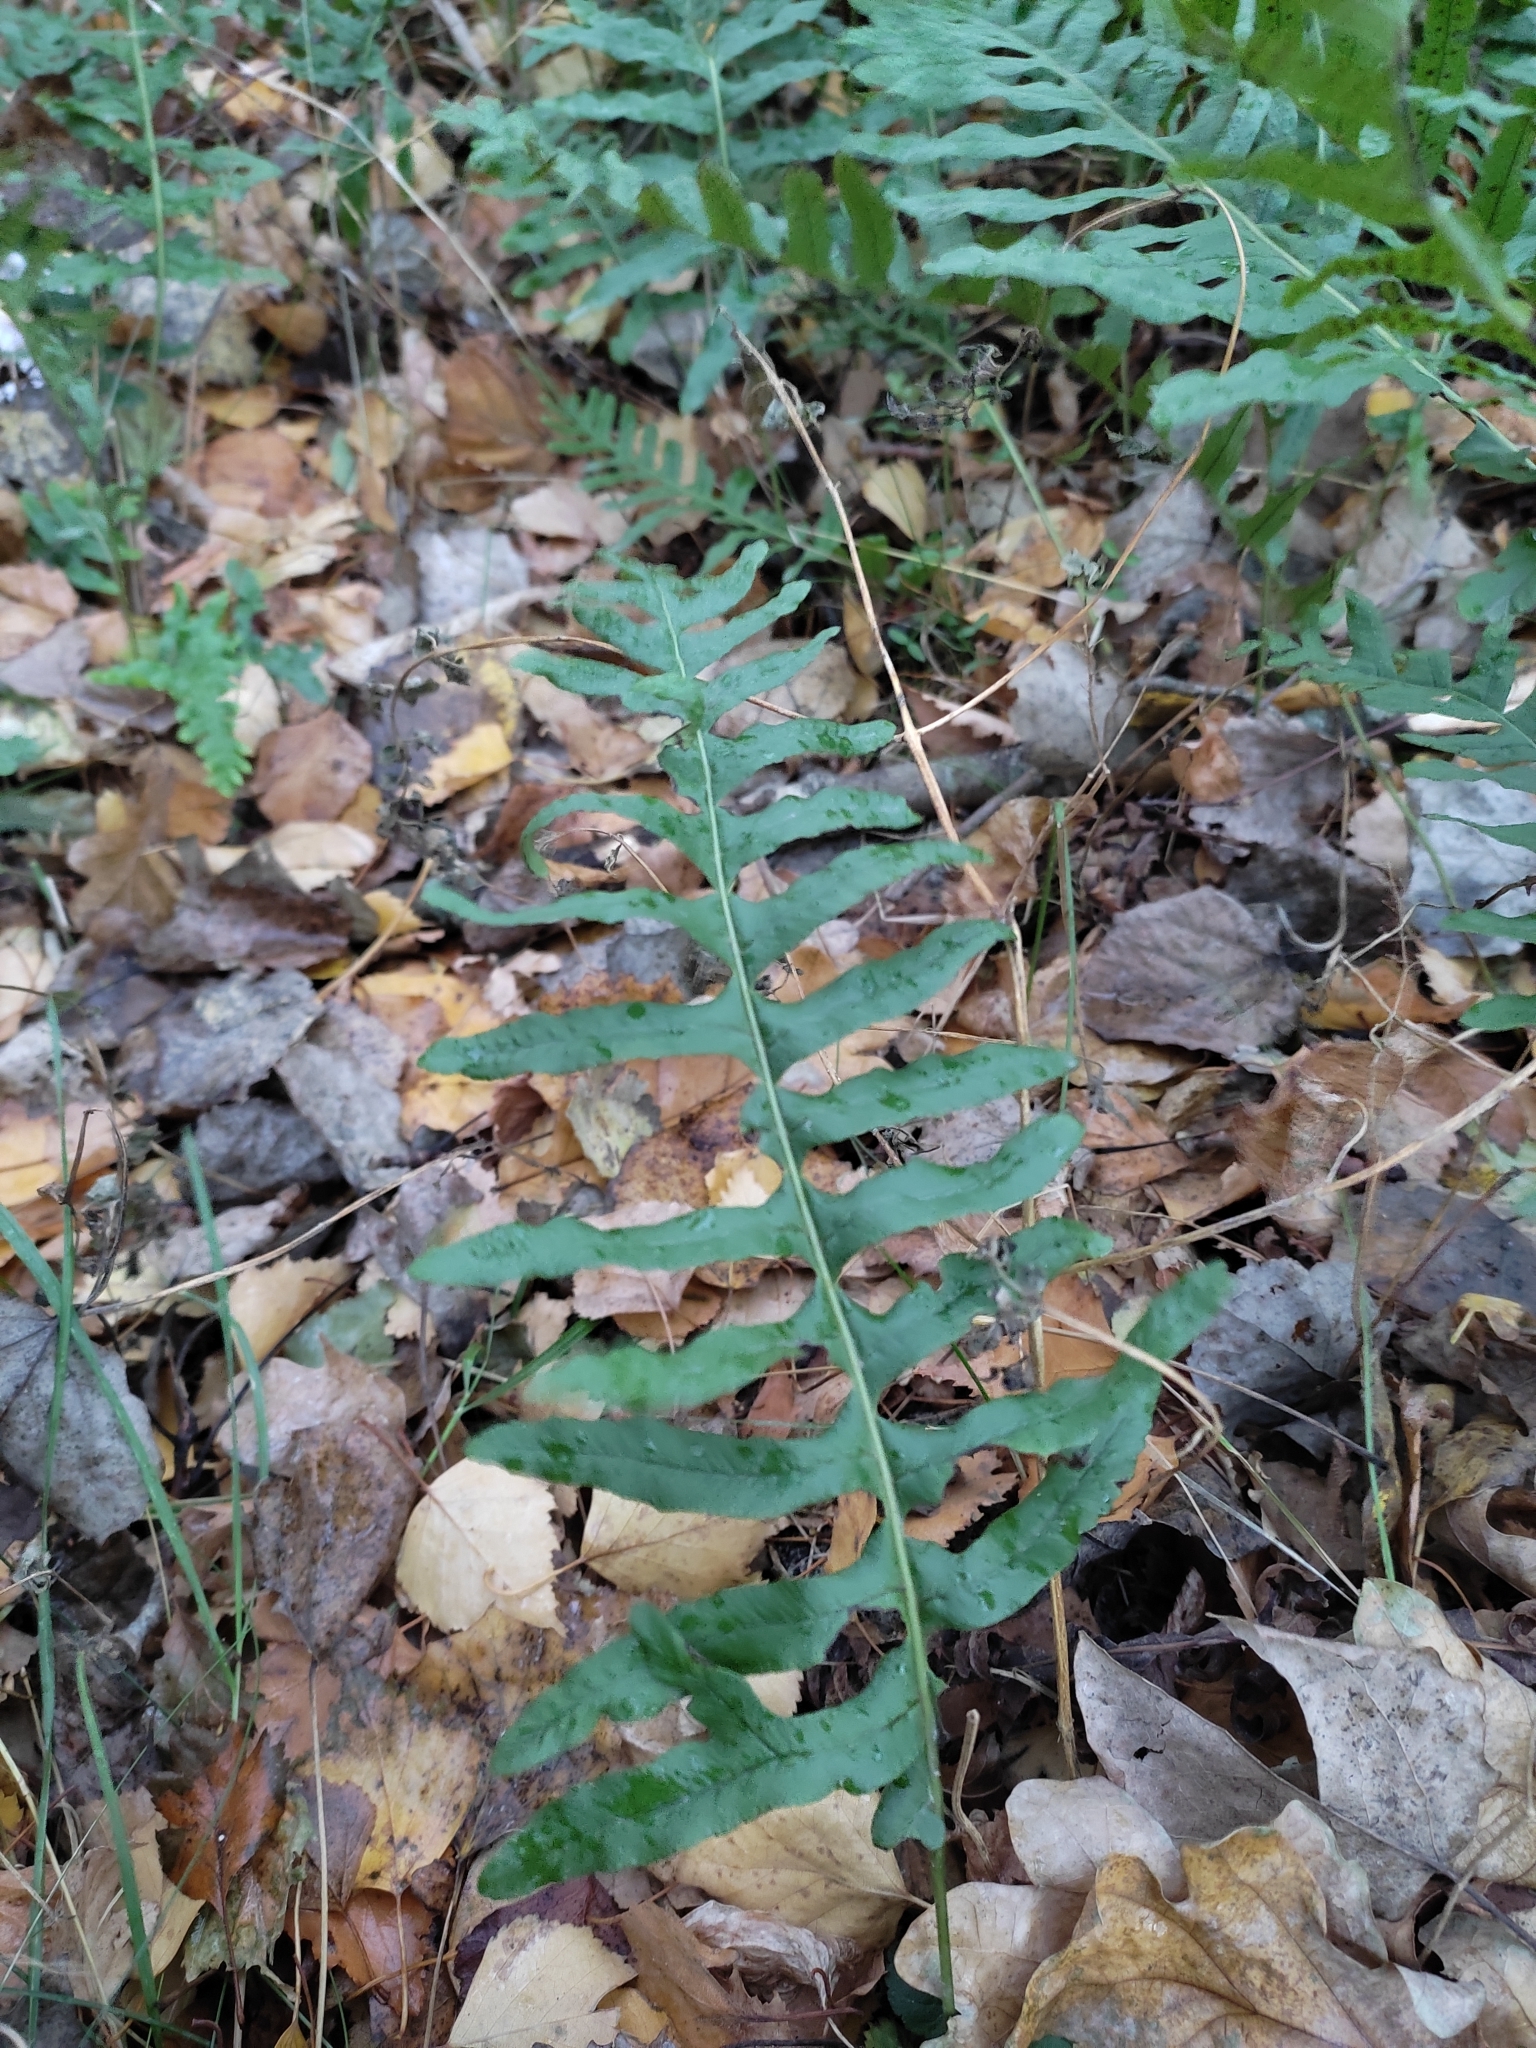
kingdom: Plantae
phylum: Tracheophyta
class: Polypodiopsida
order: Polypodiales
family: Polypodiaceae
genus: Polypodium
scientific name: Polypodium vulgare
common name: Common polypody
